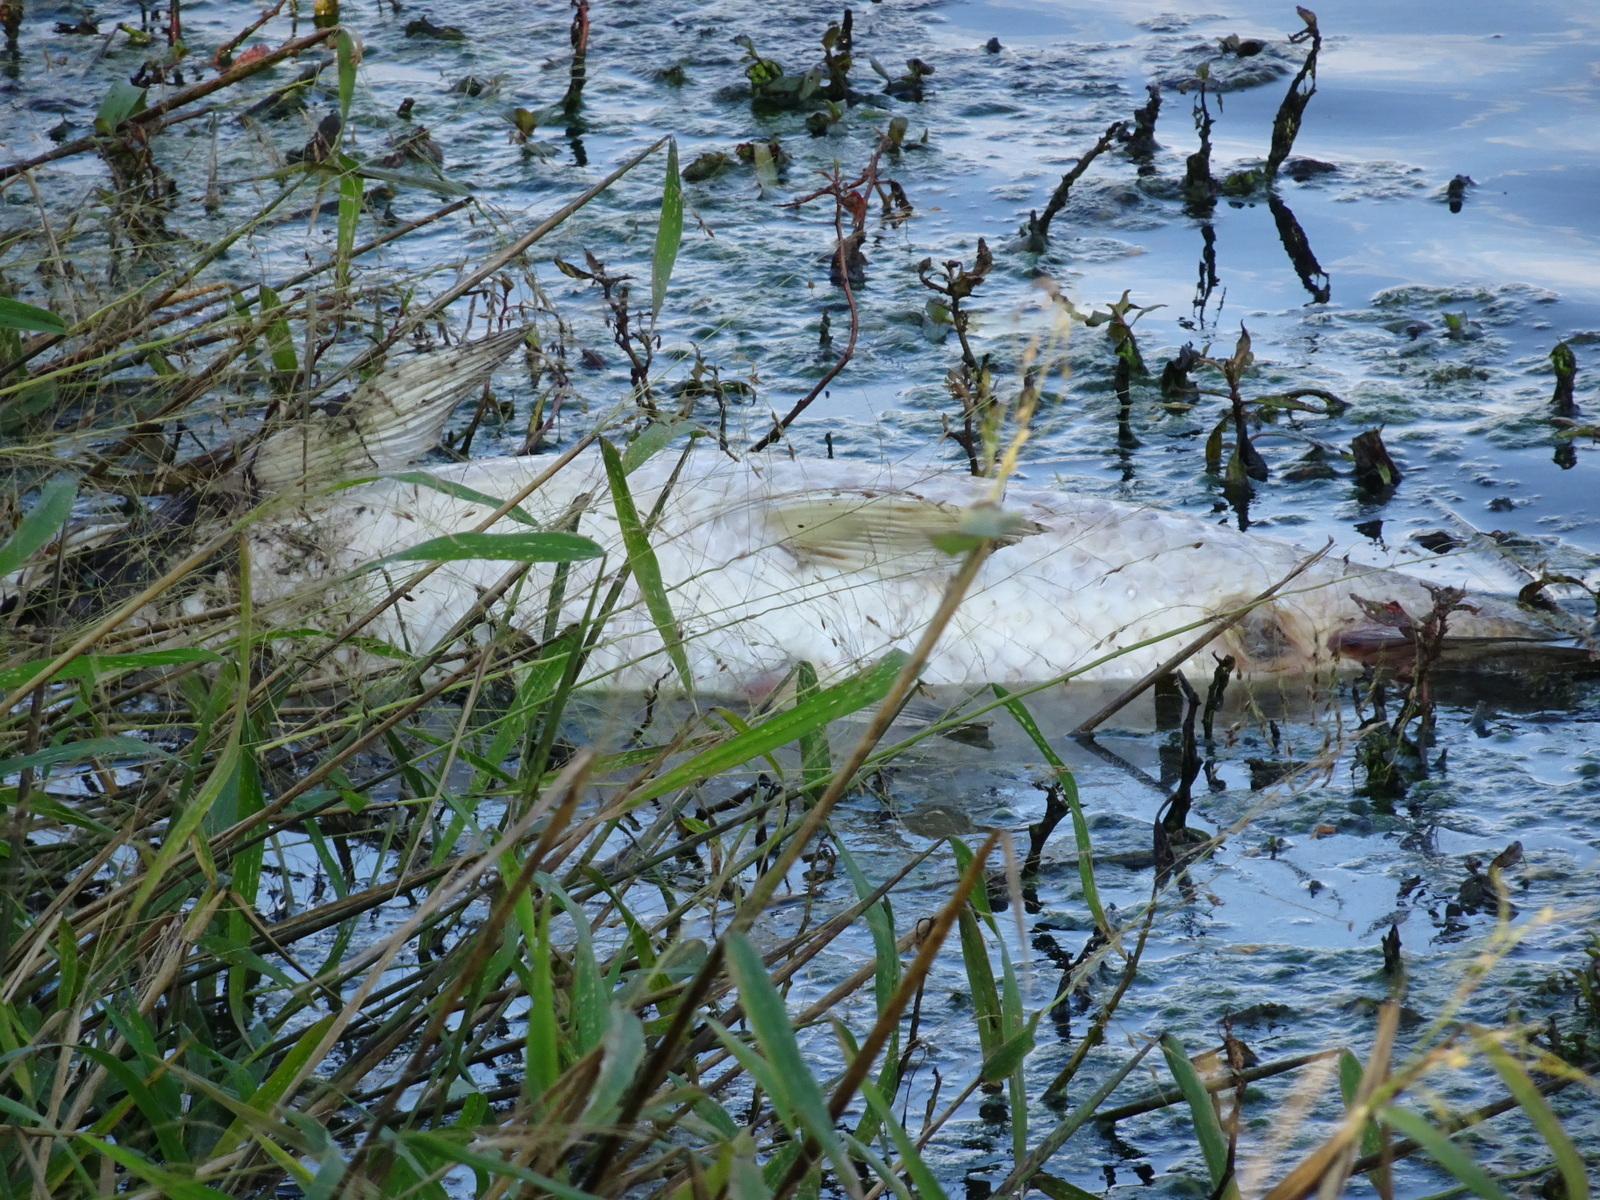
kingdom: Animalia
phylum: Chordata
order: Cypriniformes
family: Cyprinidae
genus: Ctenopharyngodon
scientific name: Ctenopharyngodon idella
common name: Grass carp
